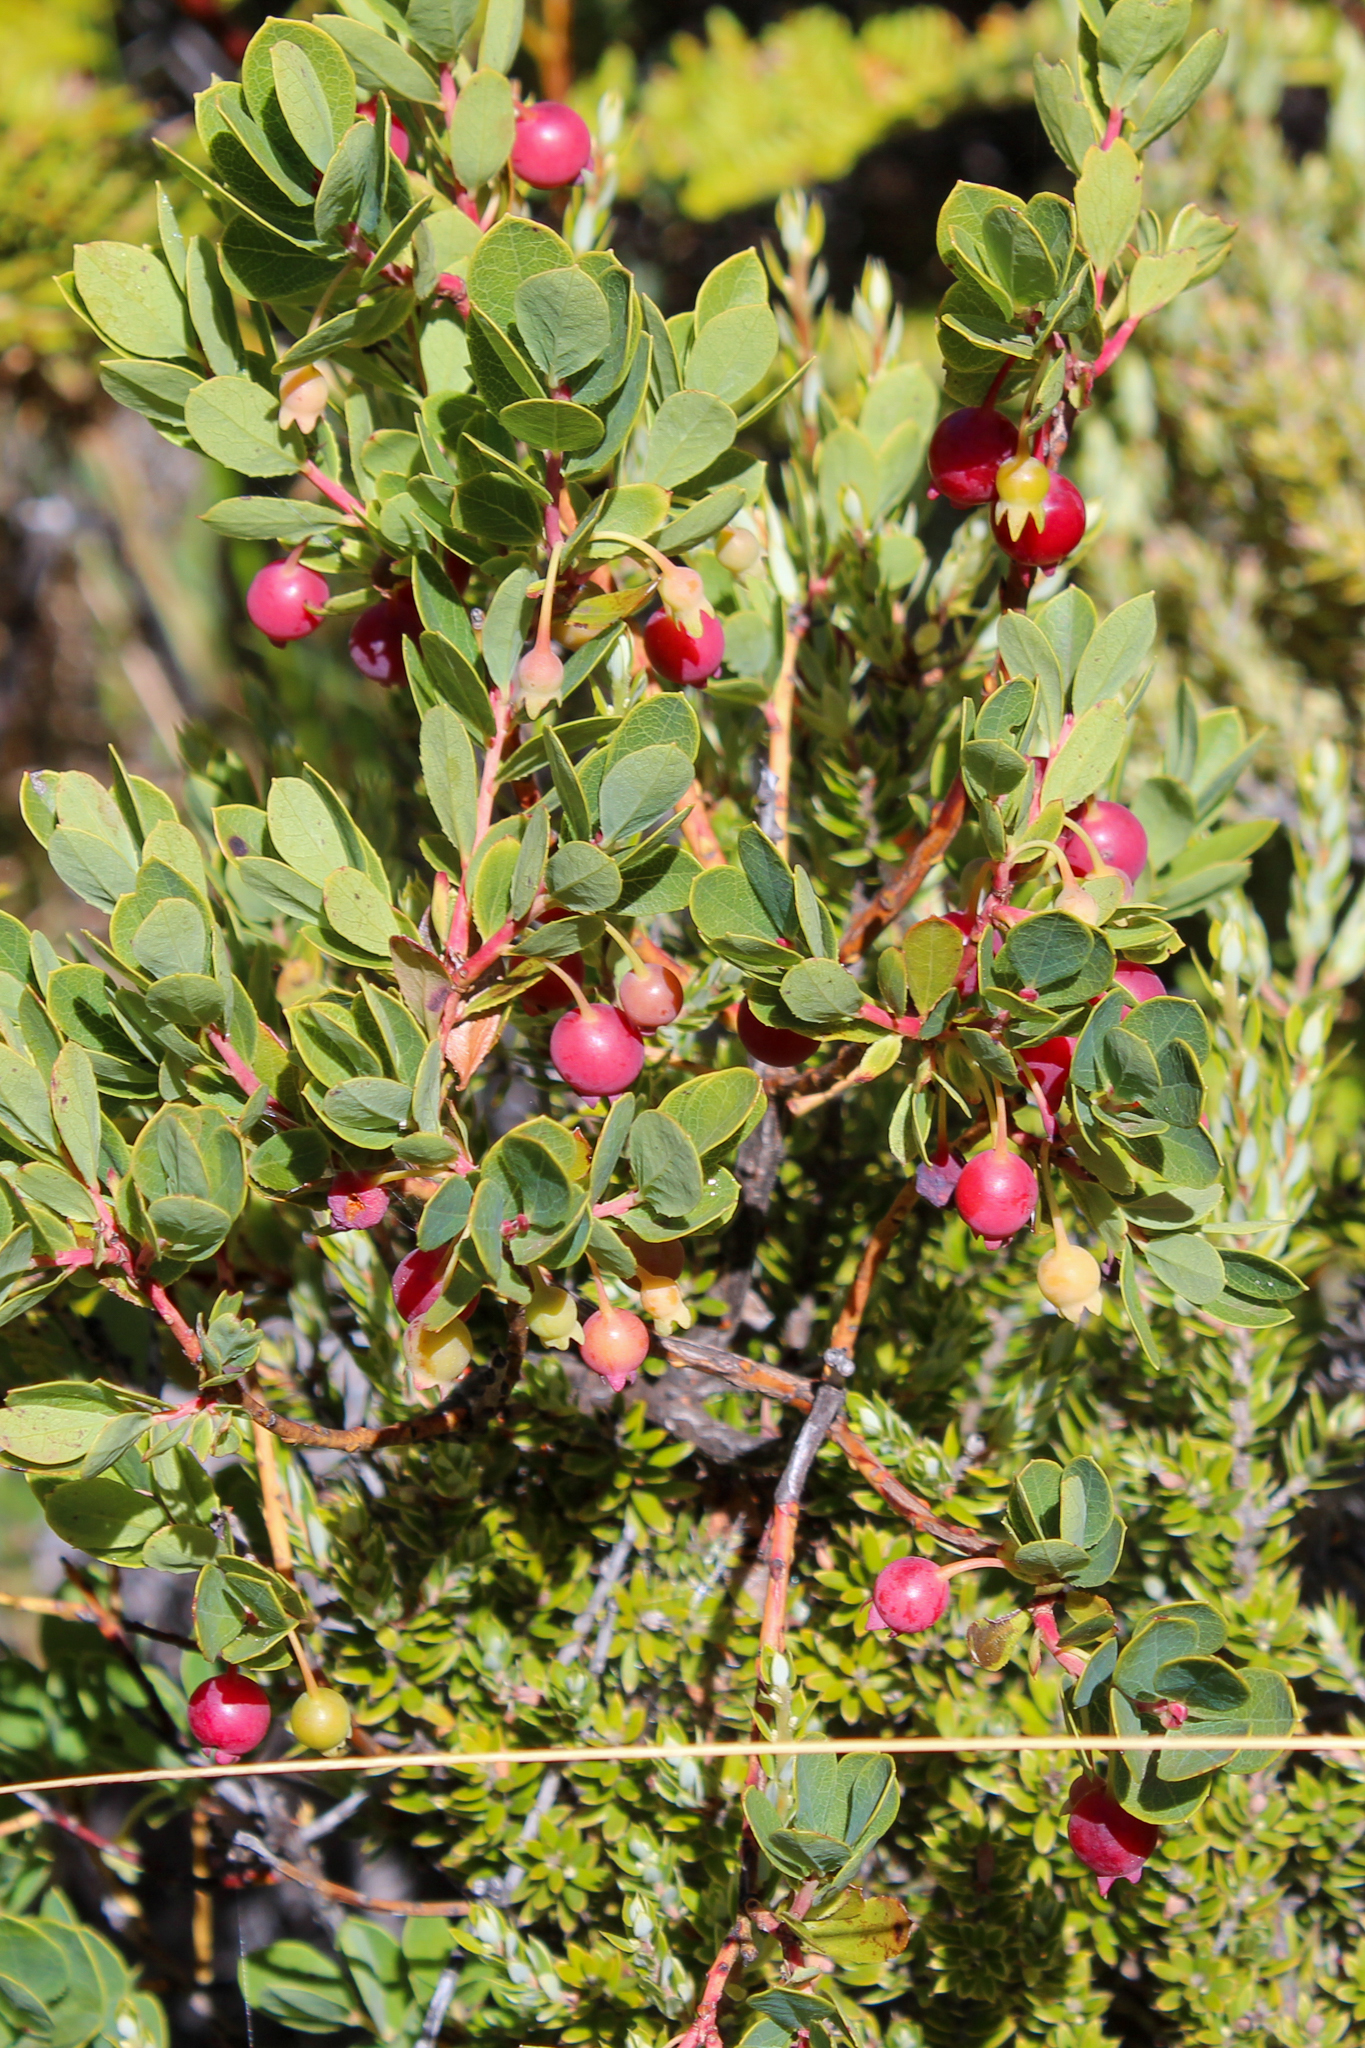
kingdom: Plantae
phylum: Tracheophyta
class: Magnoliopsida
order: Ericales
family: Ericaceae
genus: Vaccinium
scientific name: Vaccinium reticulatum
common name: Ohelo
